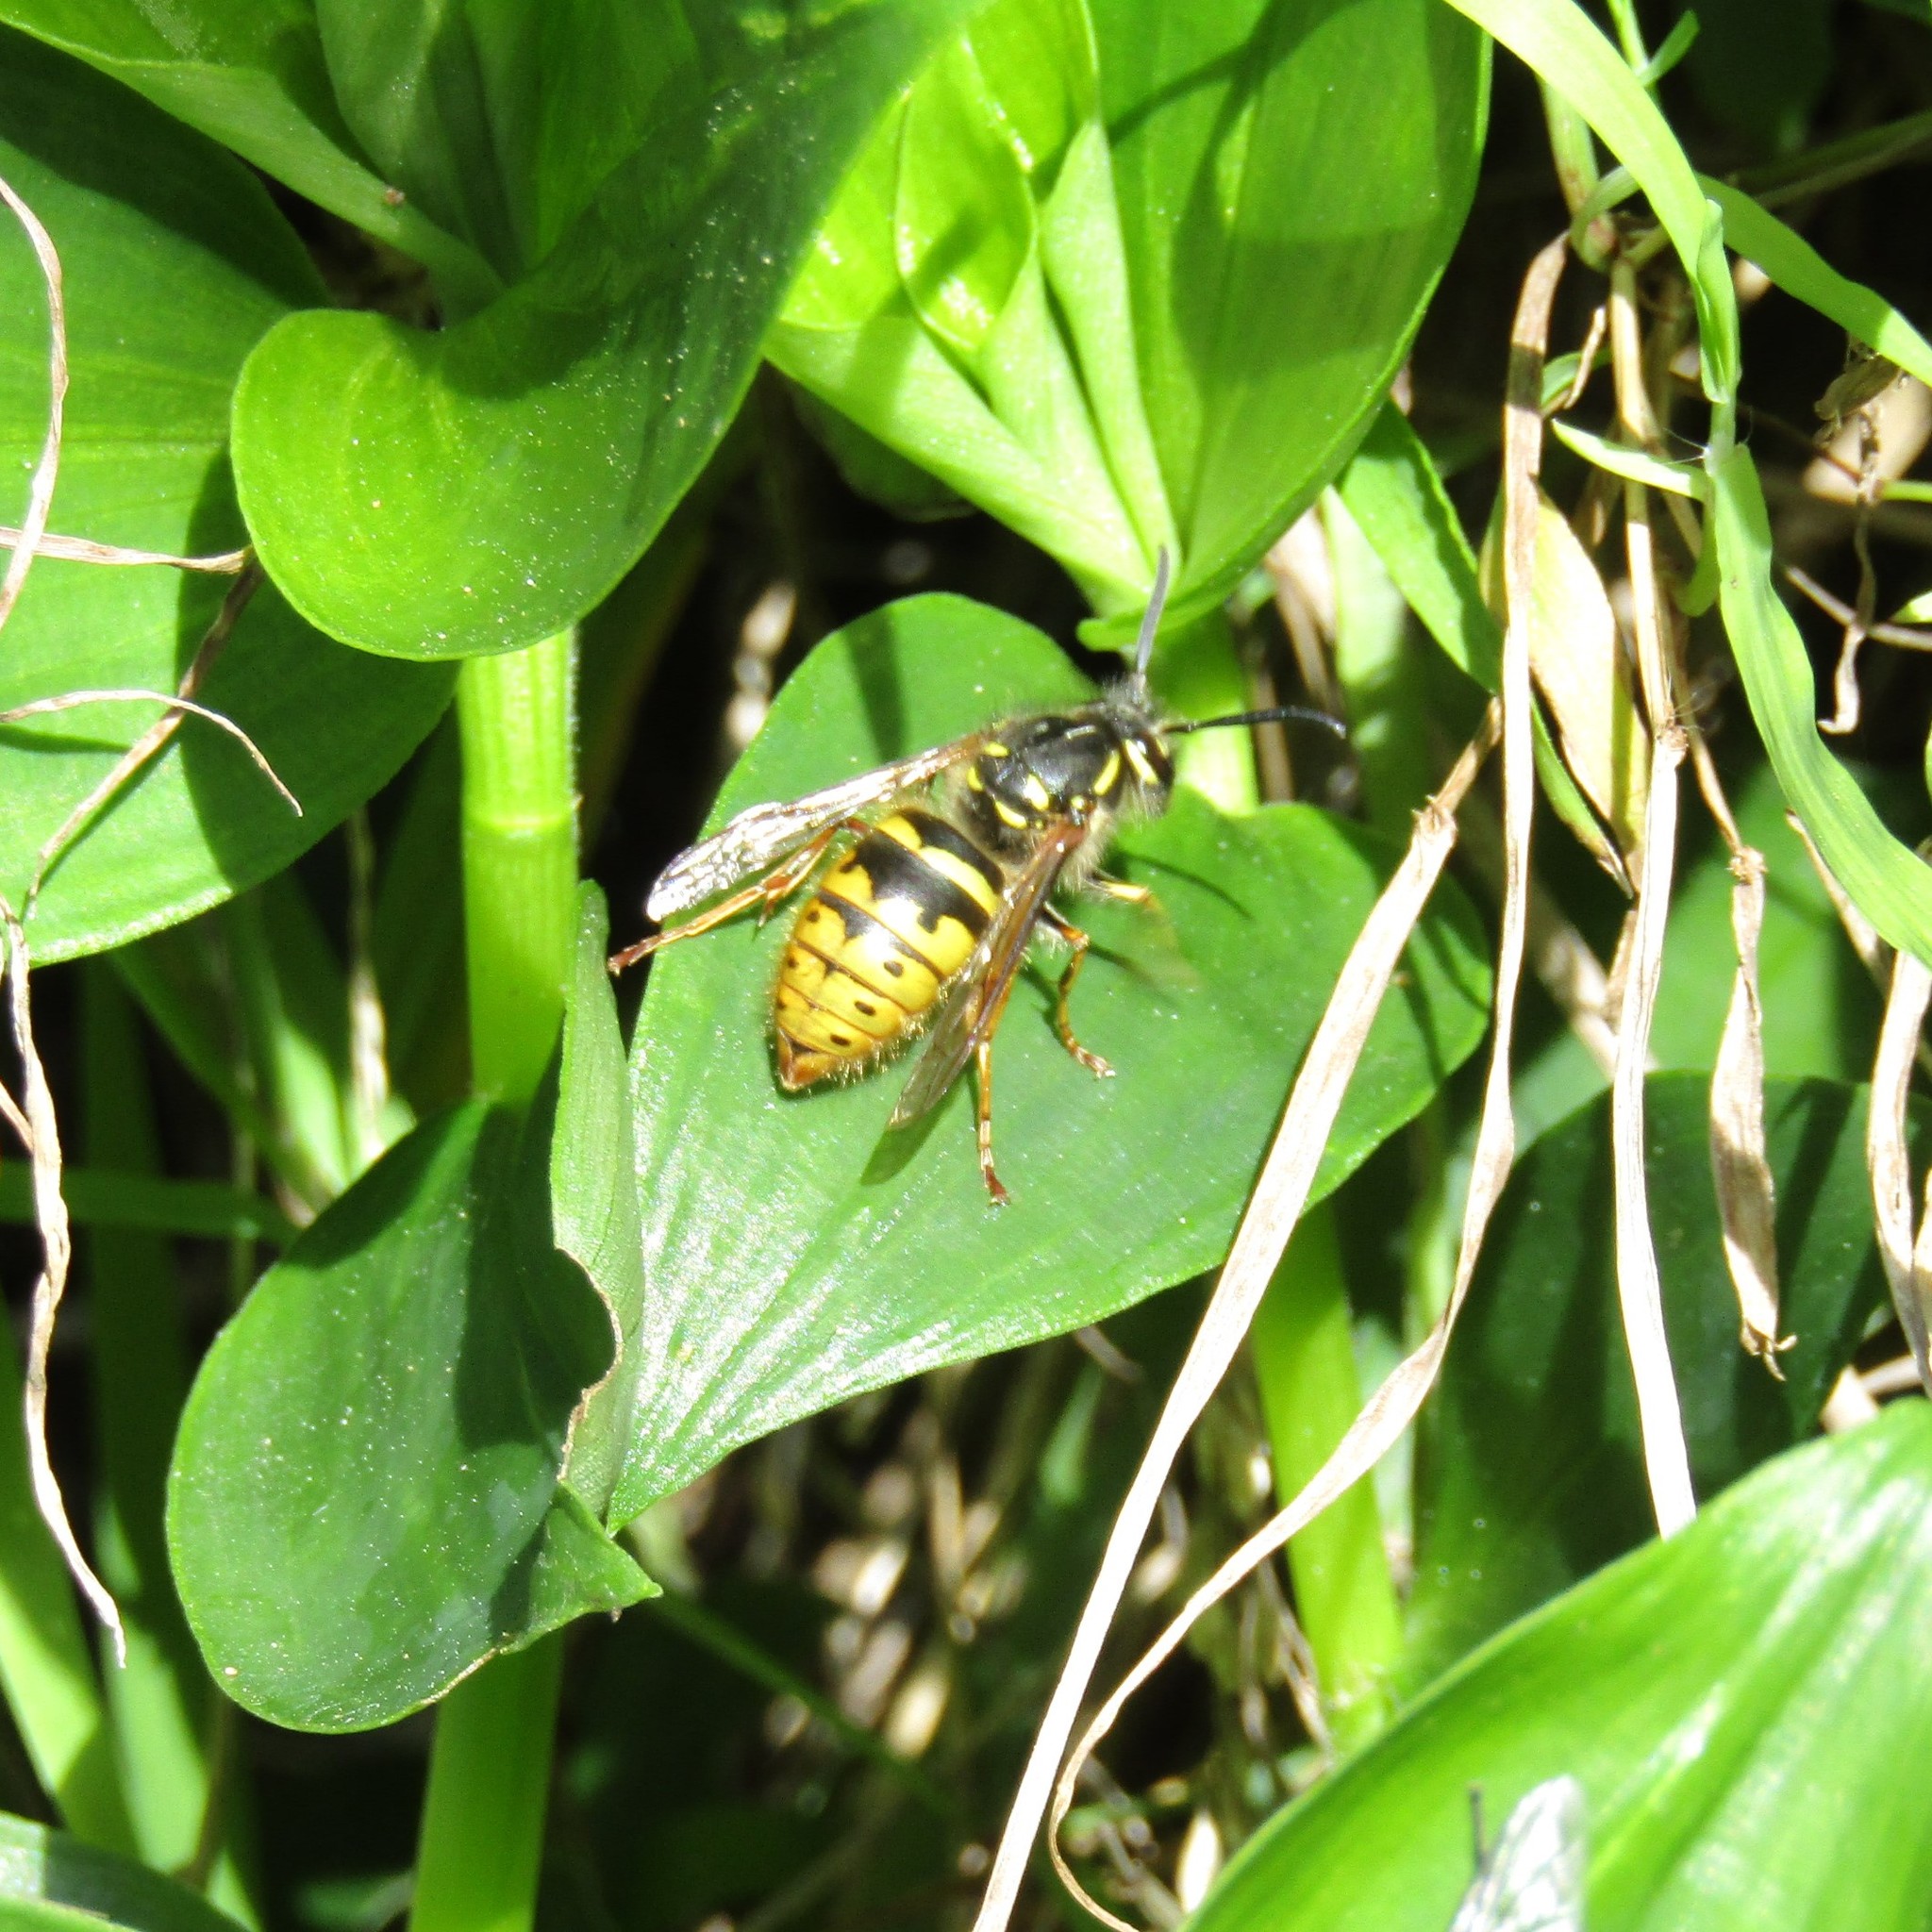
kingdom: Animalia
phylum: Arthropoda
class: Insecta
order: Hymenoptera
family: Vespidae
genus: Vespula
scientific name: Vespula vulgaris
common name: Common wasp
